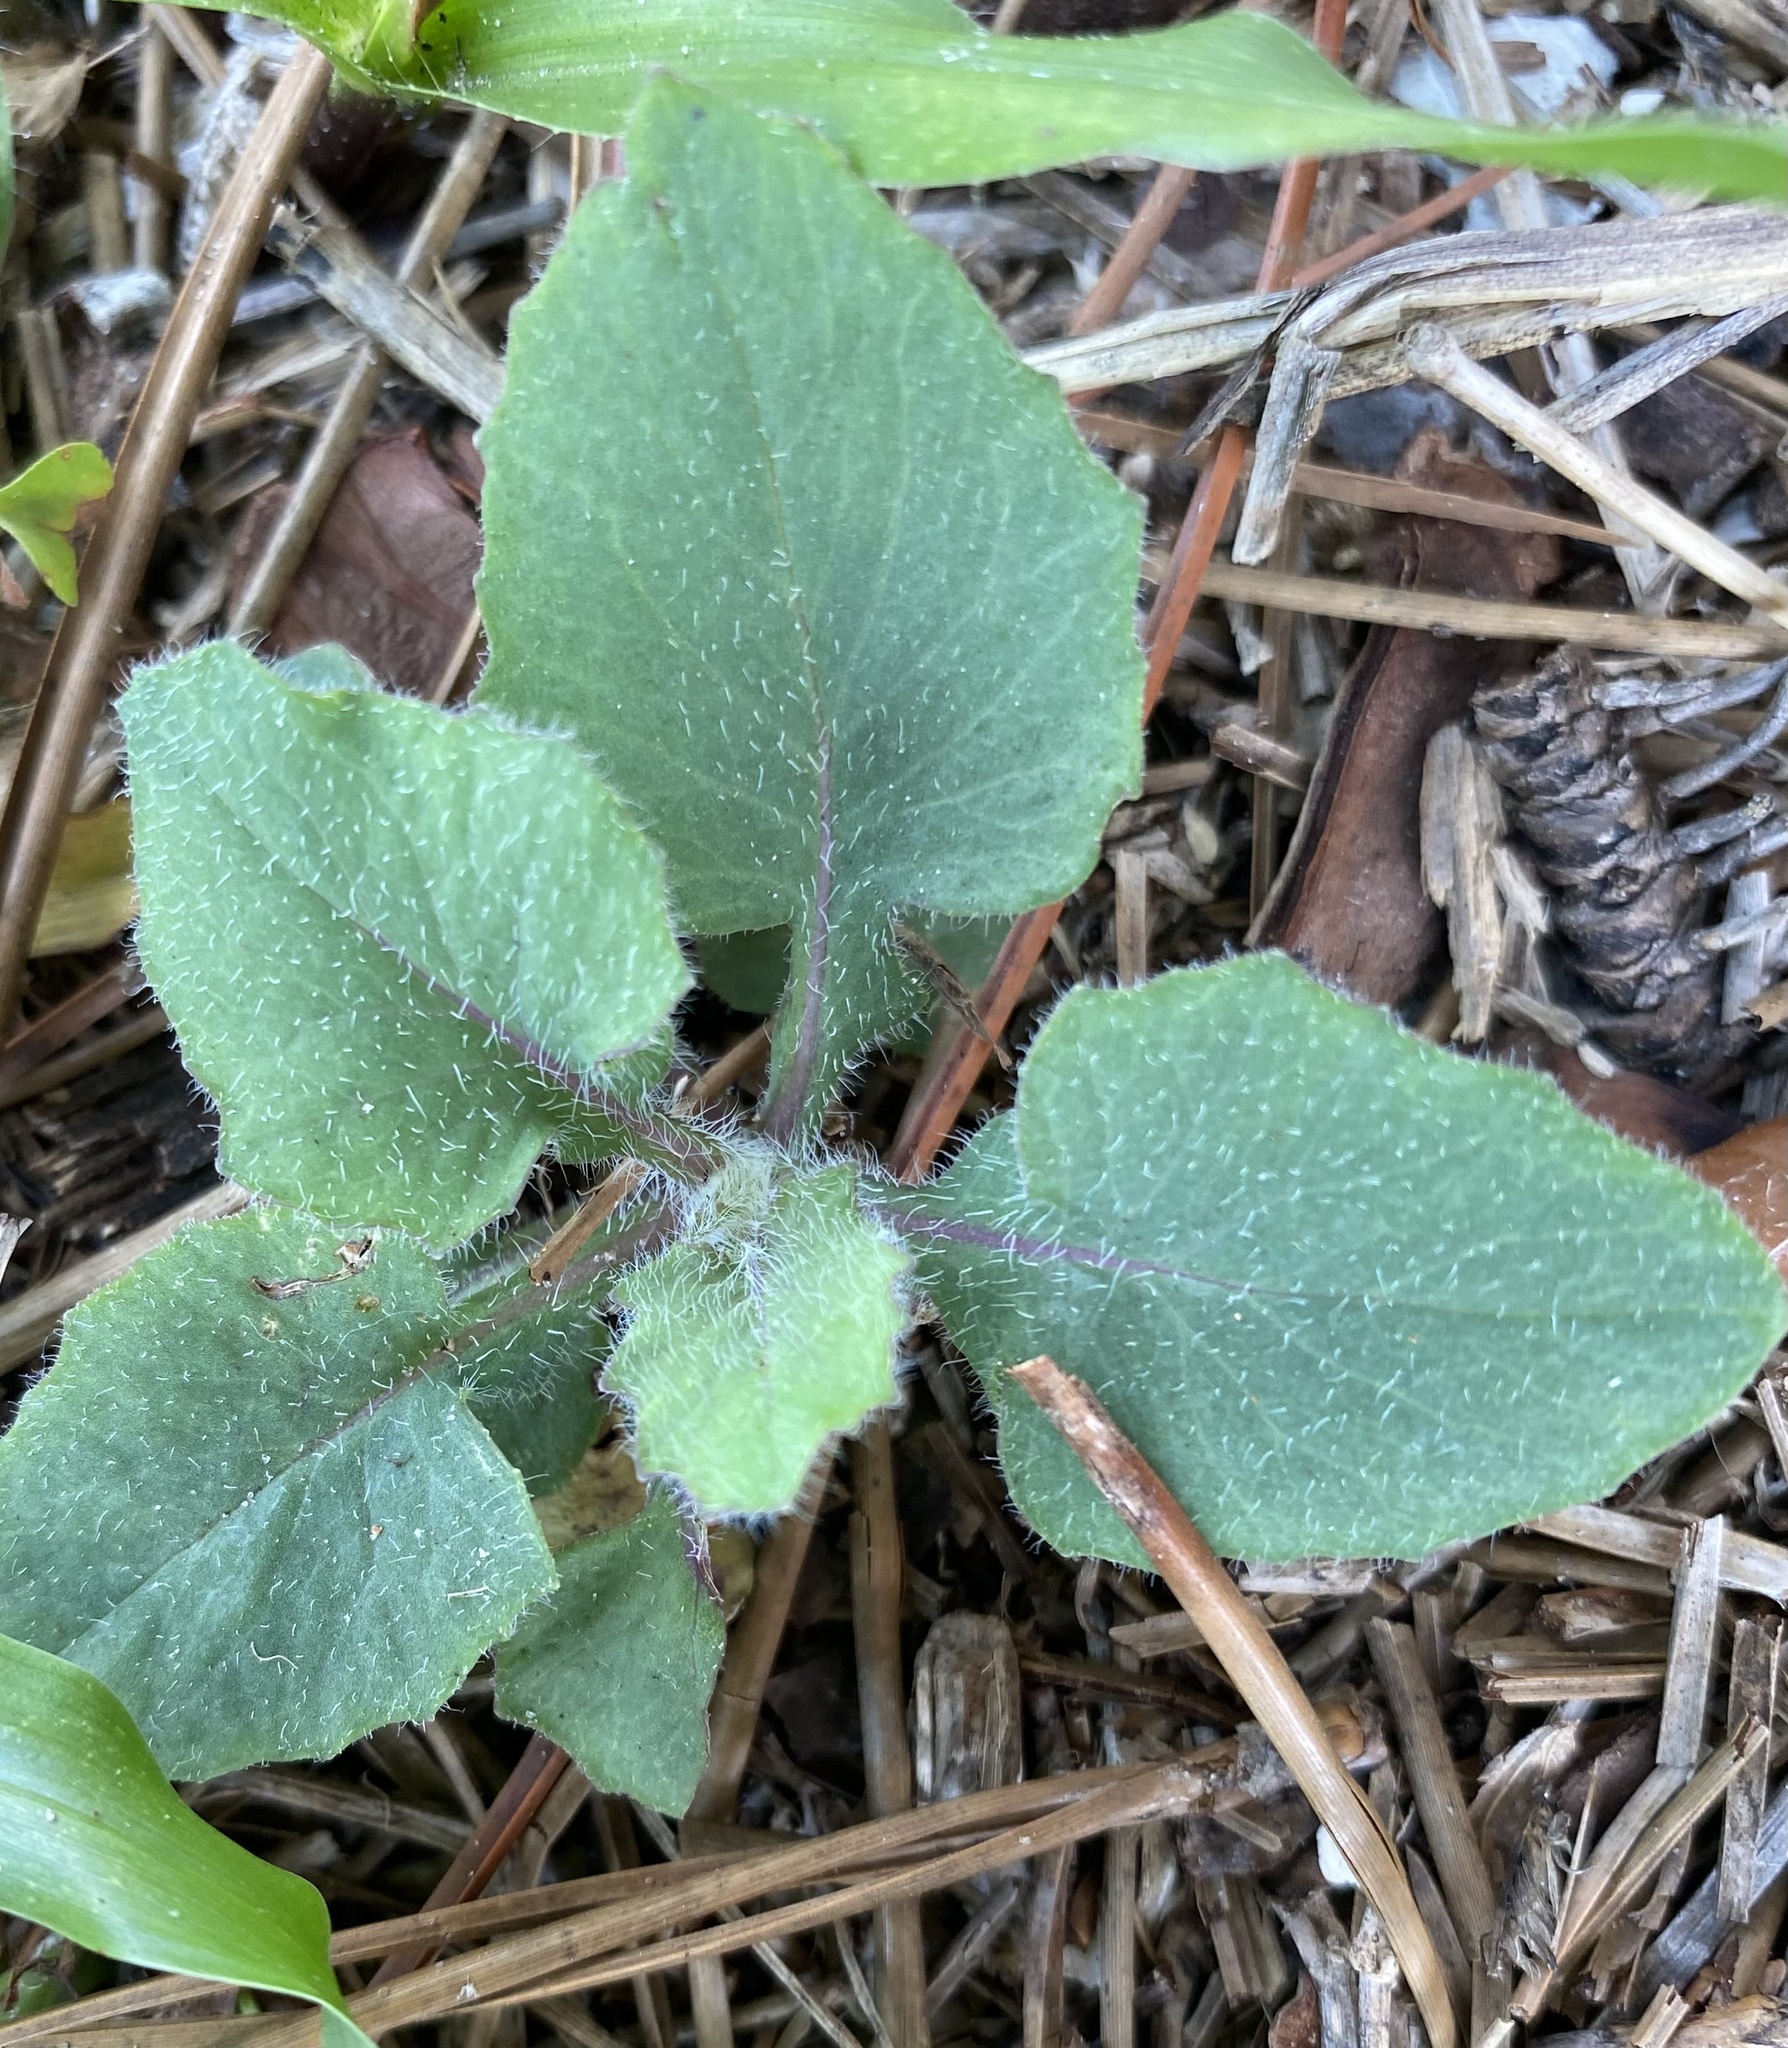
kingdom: Plantae
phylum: Tracheophyta
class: Magnoliopsida
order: Asterales
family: Asteraceae
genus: Emilia
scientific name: Emilia sonchifolia
